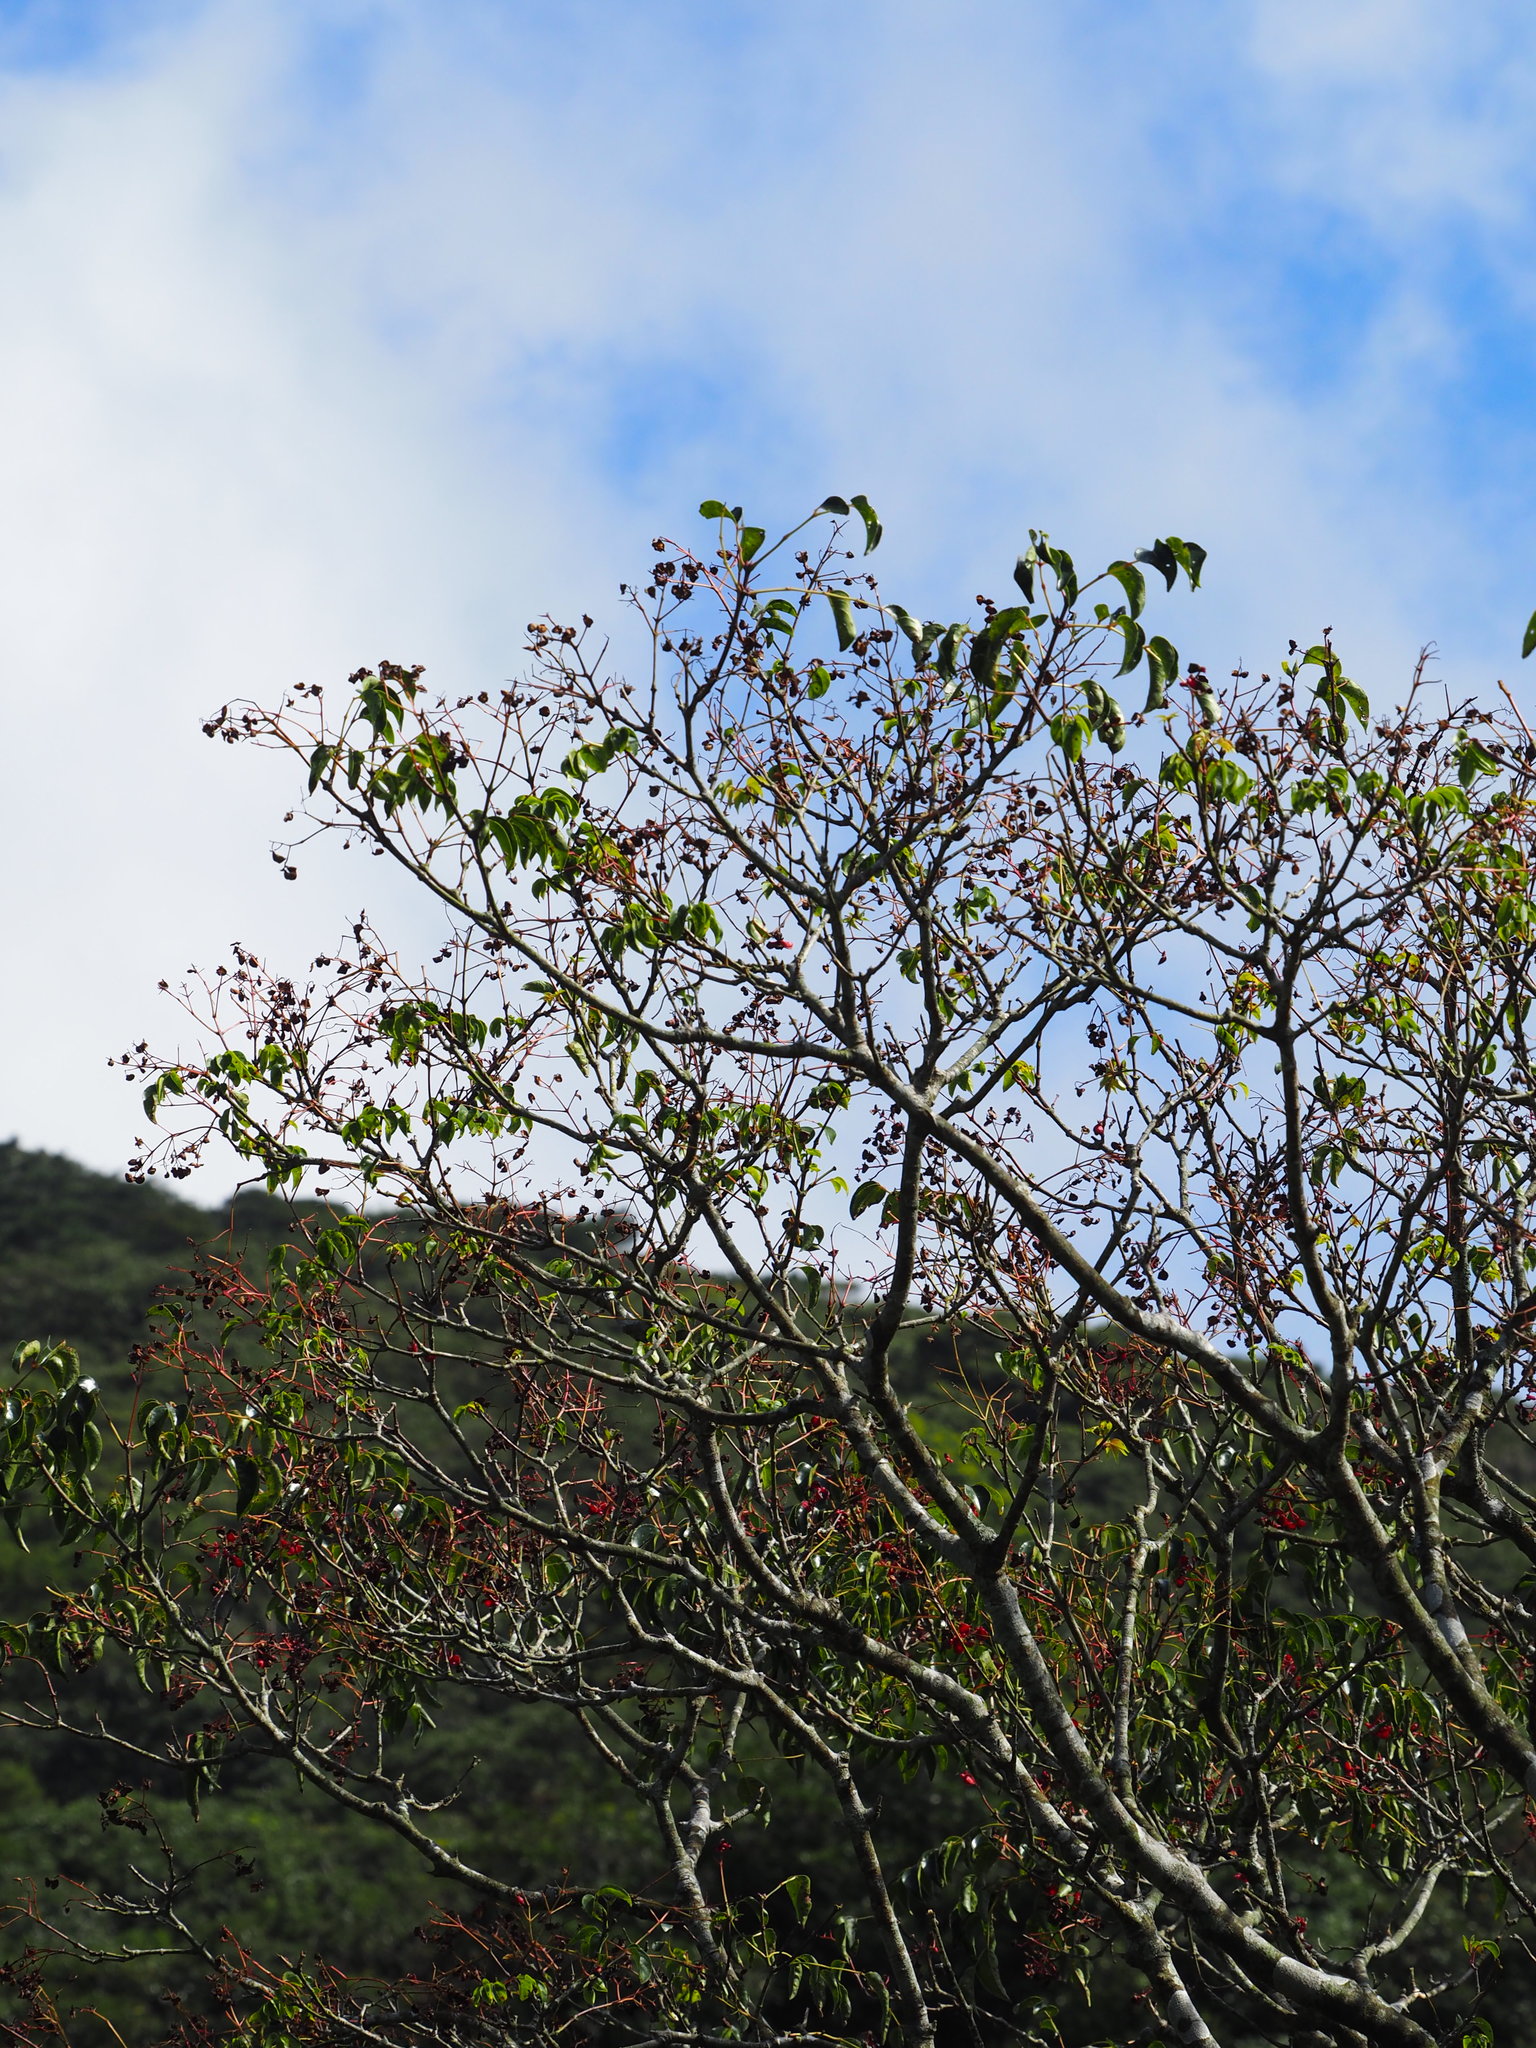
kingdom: Plantae
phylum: Tracheophyta
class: Magnoliopsida
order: Crossosomatales
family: Staphyleaceae
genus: Staphylea
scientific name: Staphylea japonica
